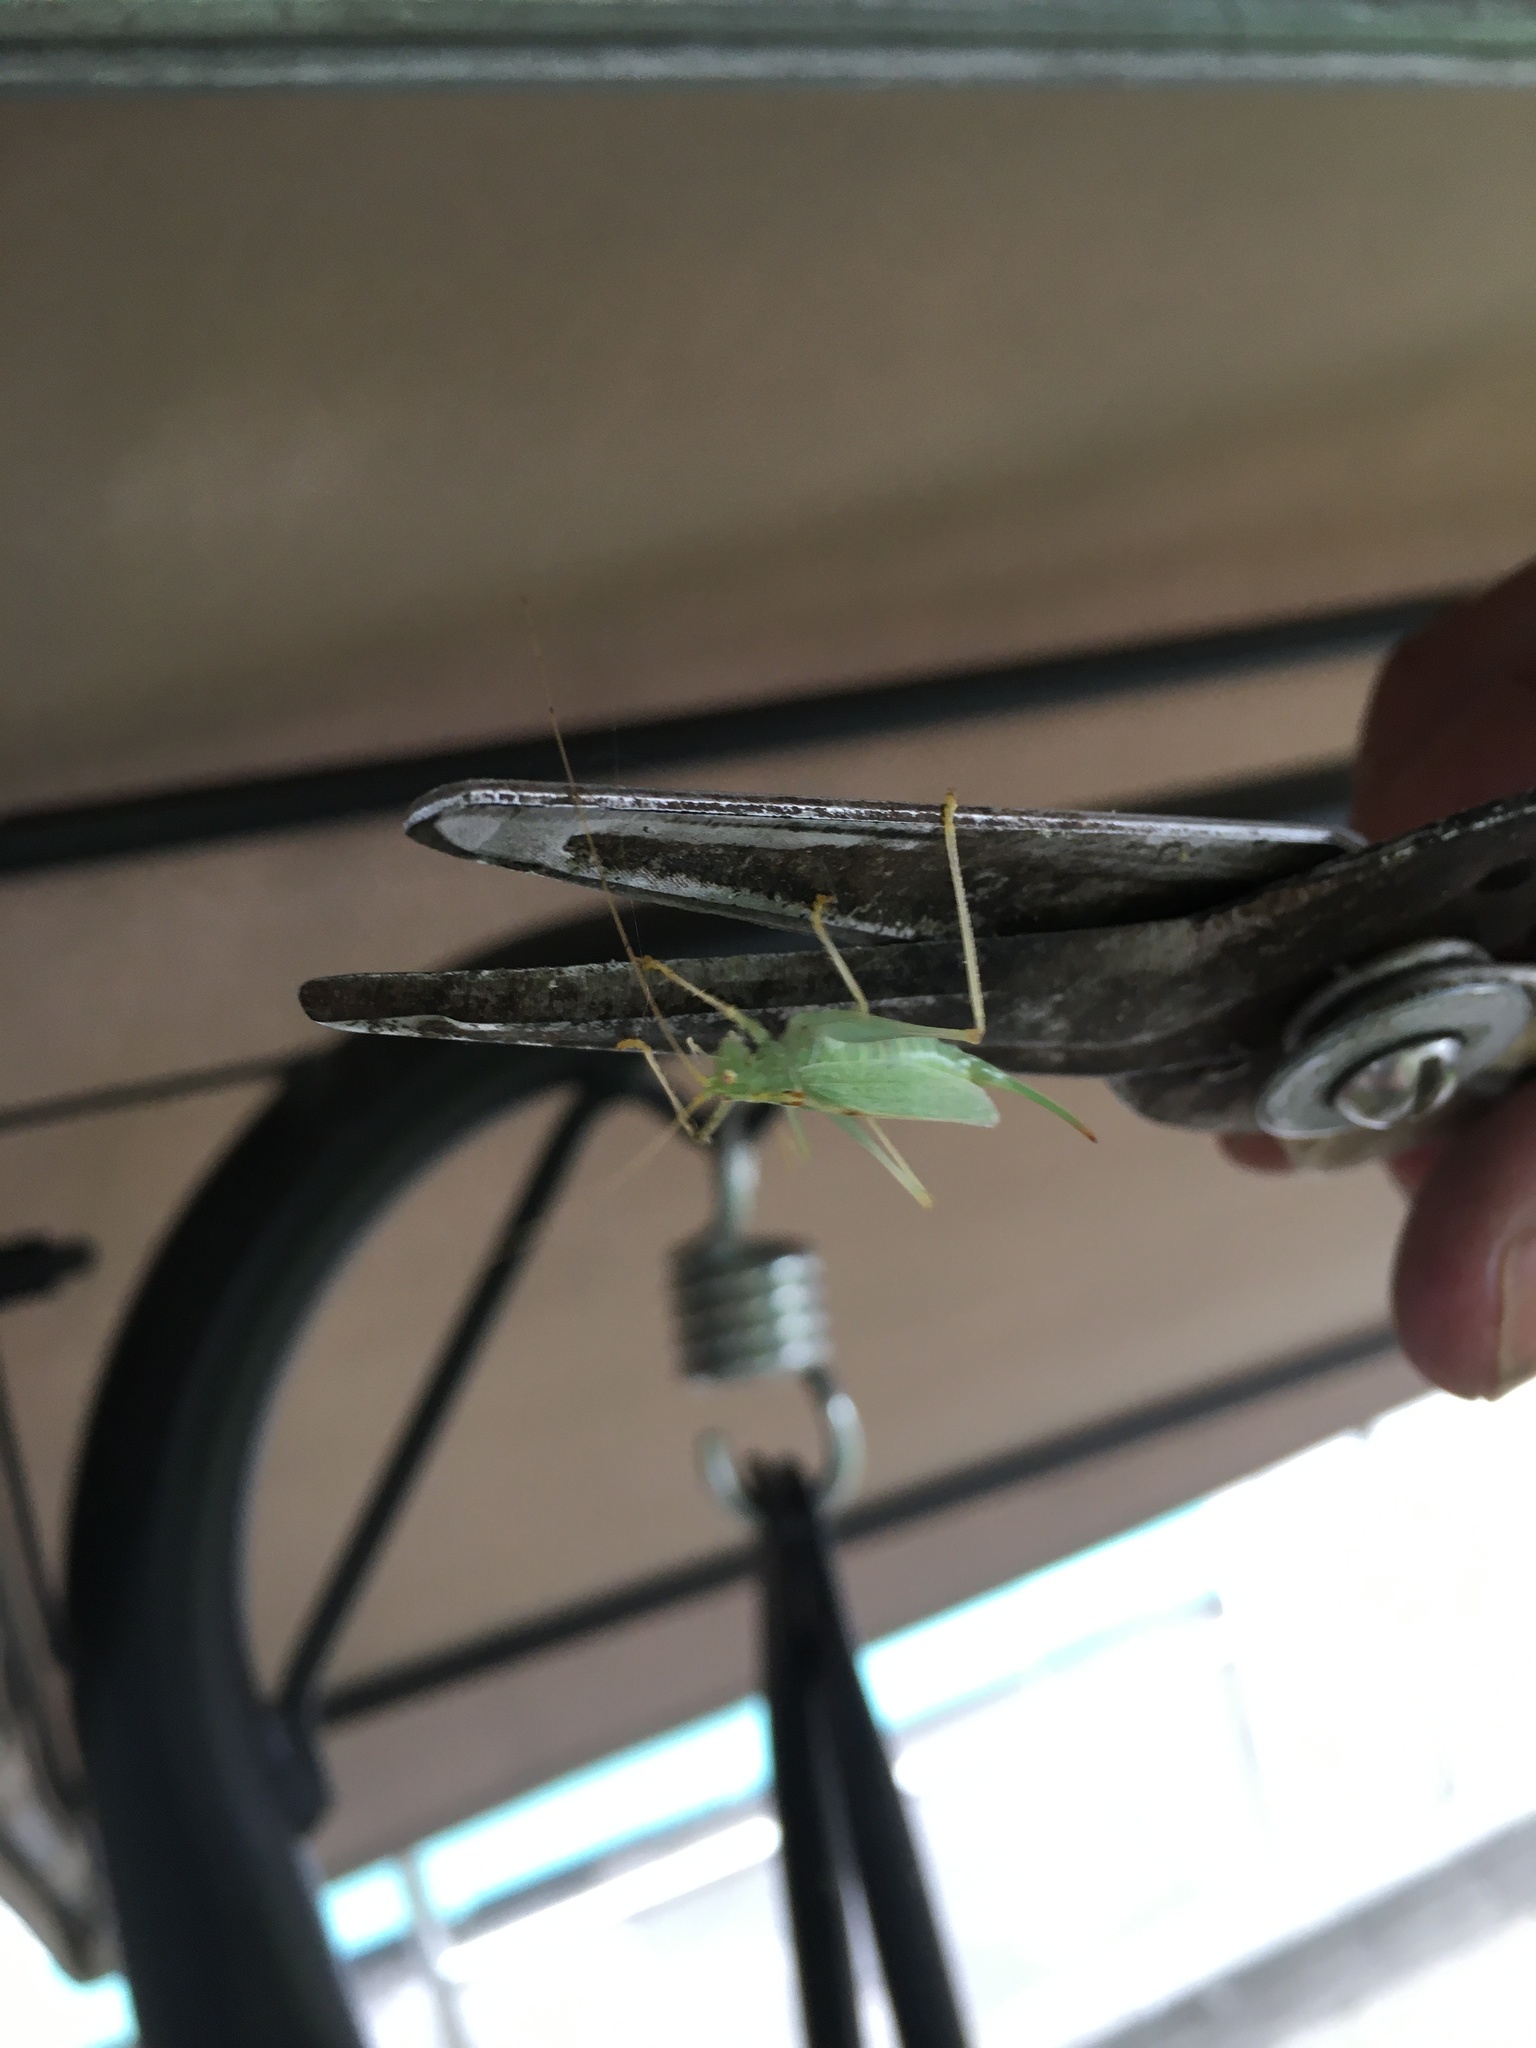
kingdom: Animalia
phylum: Arthropoda
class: Insecta
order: Orthoptera
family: Tettigoniidae
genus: Meconema
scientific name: Meconema thalassinum
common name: Oak bush-cricket
